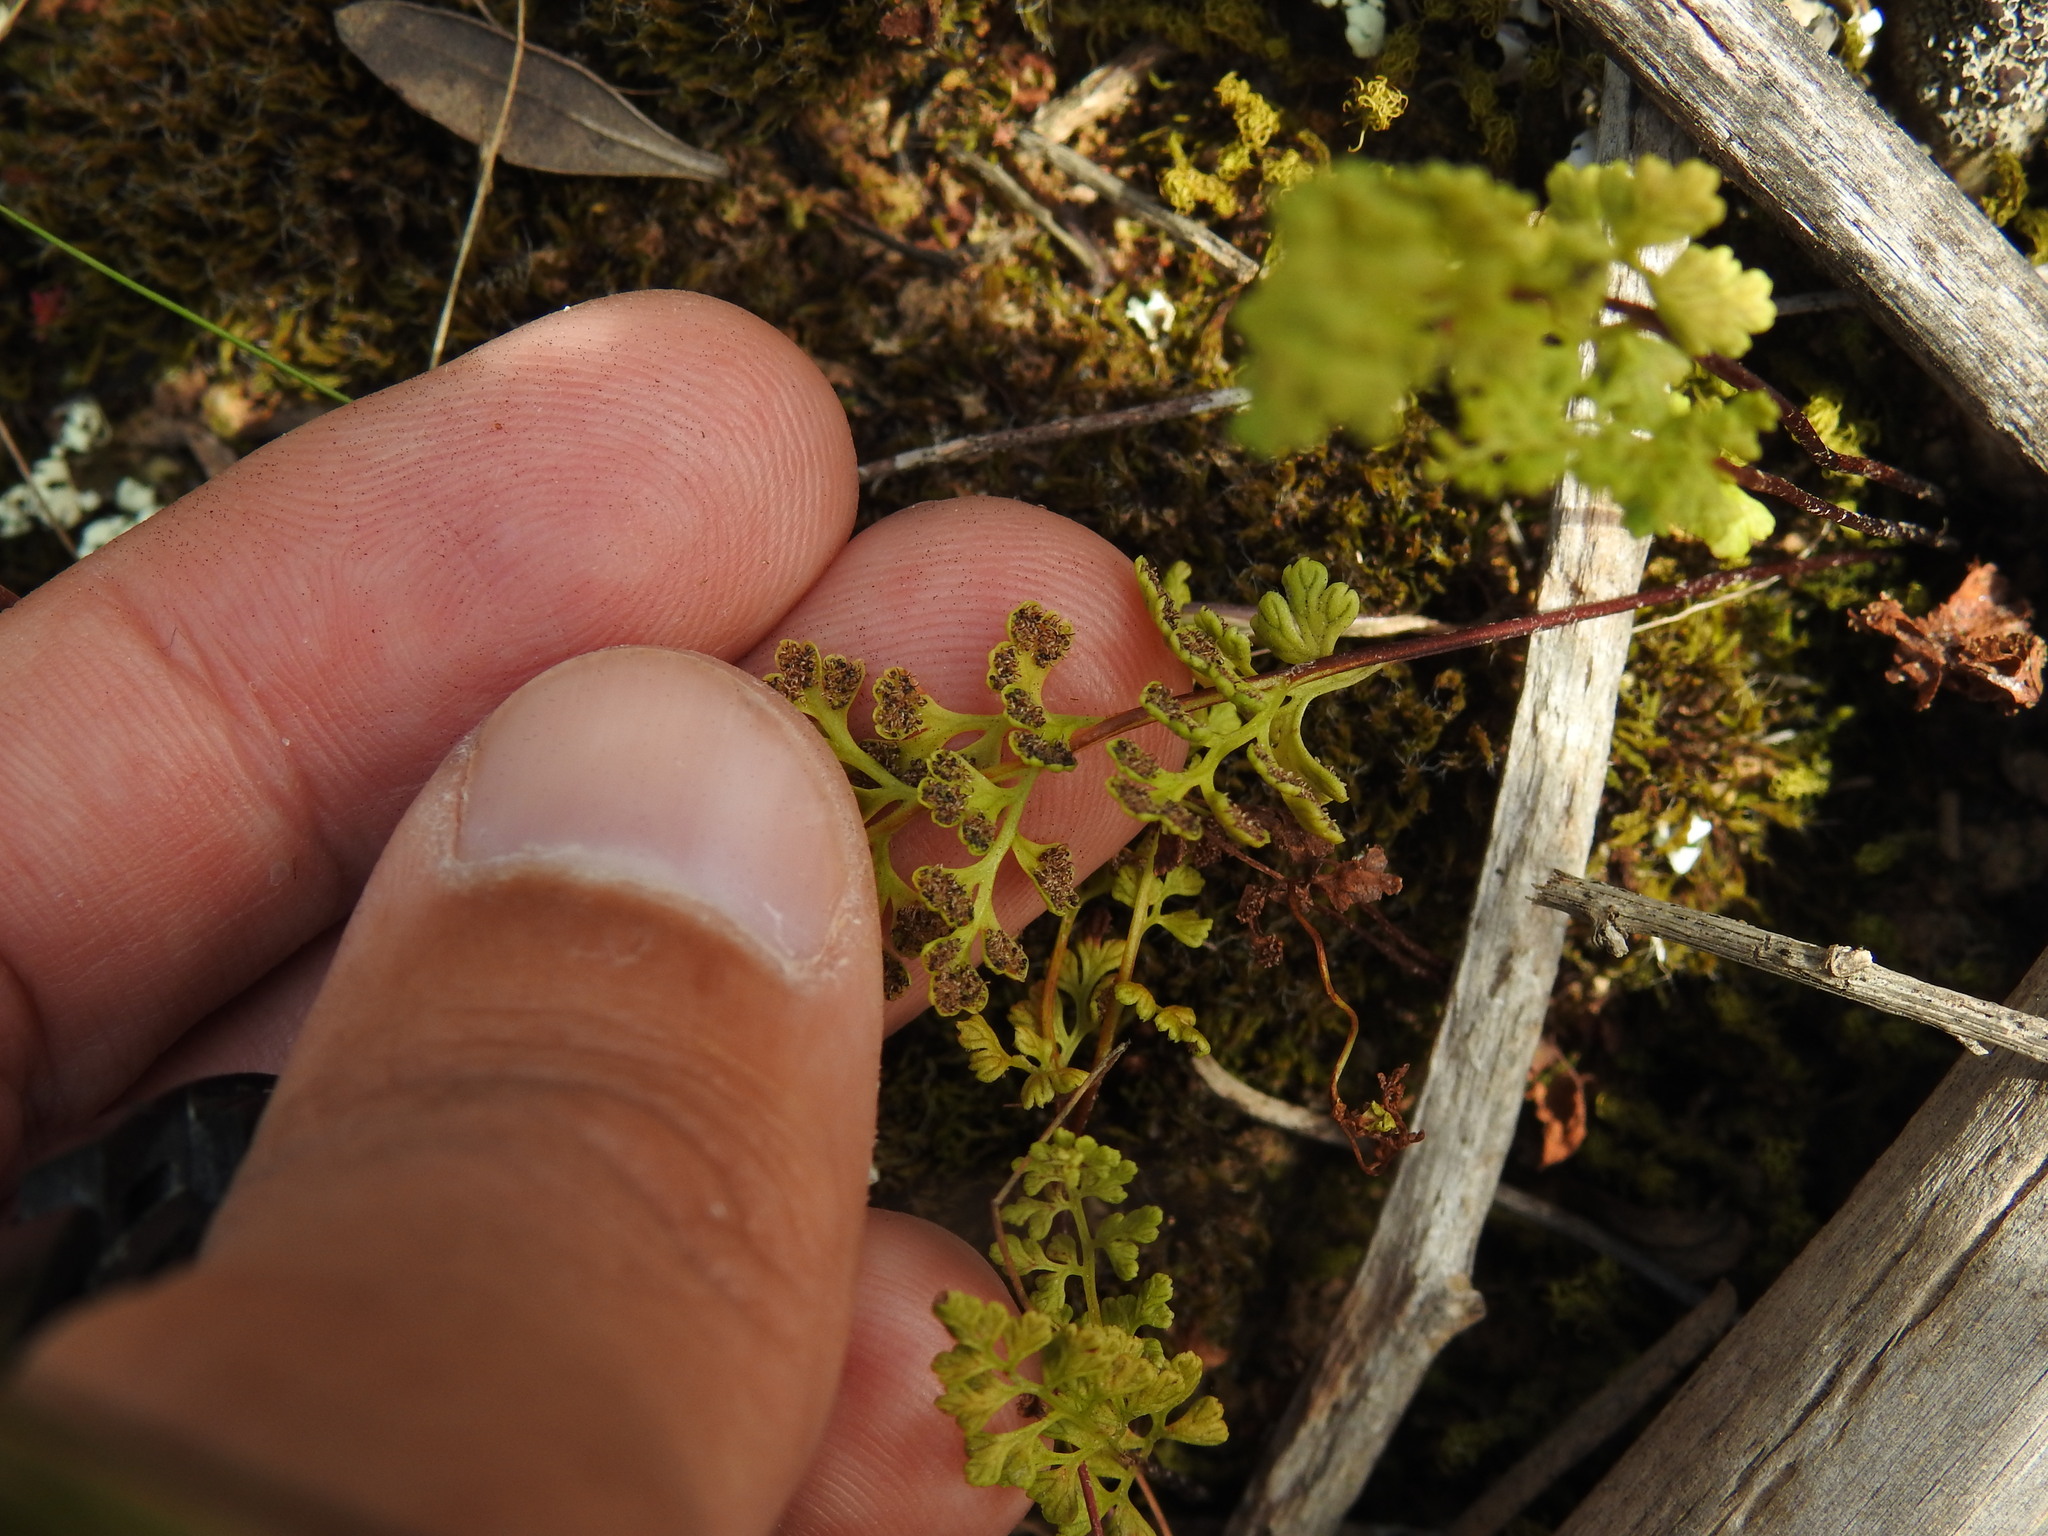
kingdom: Plantae
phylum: Tracheophyta
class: Polypodiopsida
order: Polypodiales
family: Pteridaceae
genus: Anogramma
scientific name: Anogramma leptophylla
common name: Jersey fern
